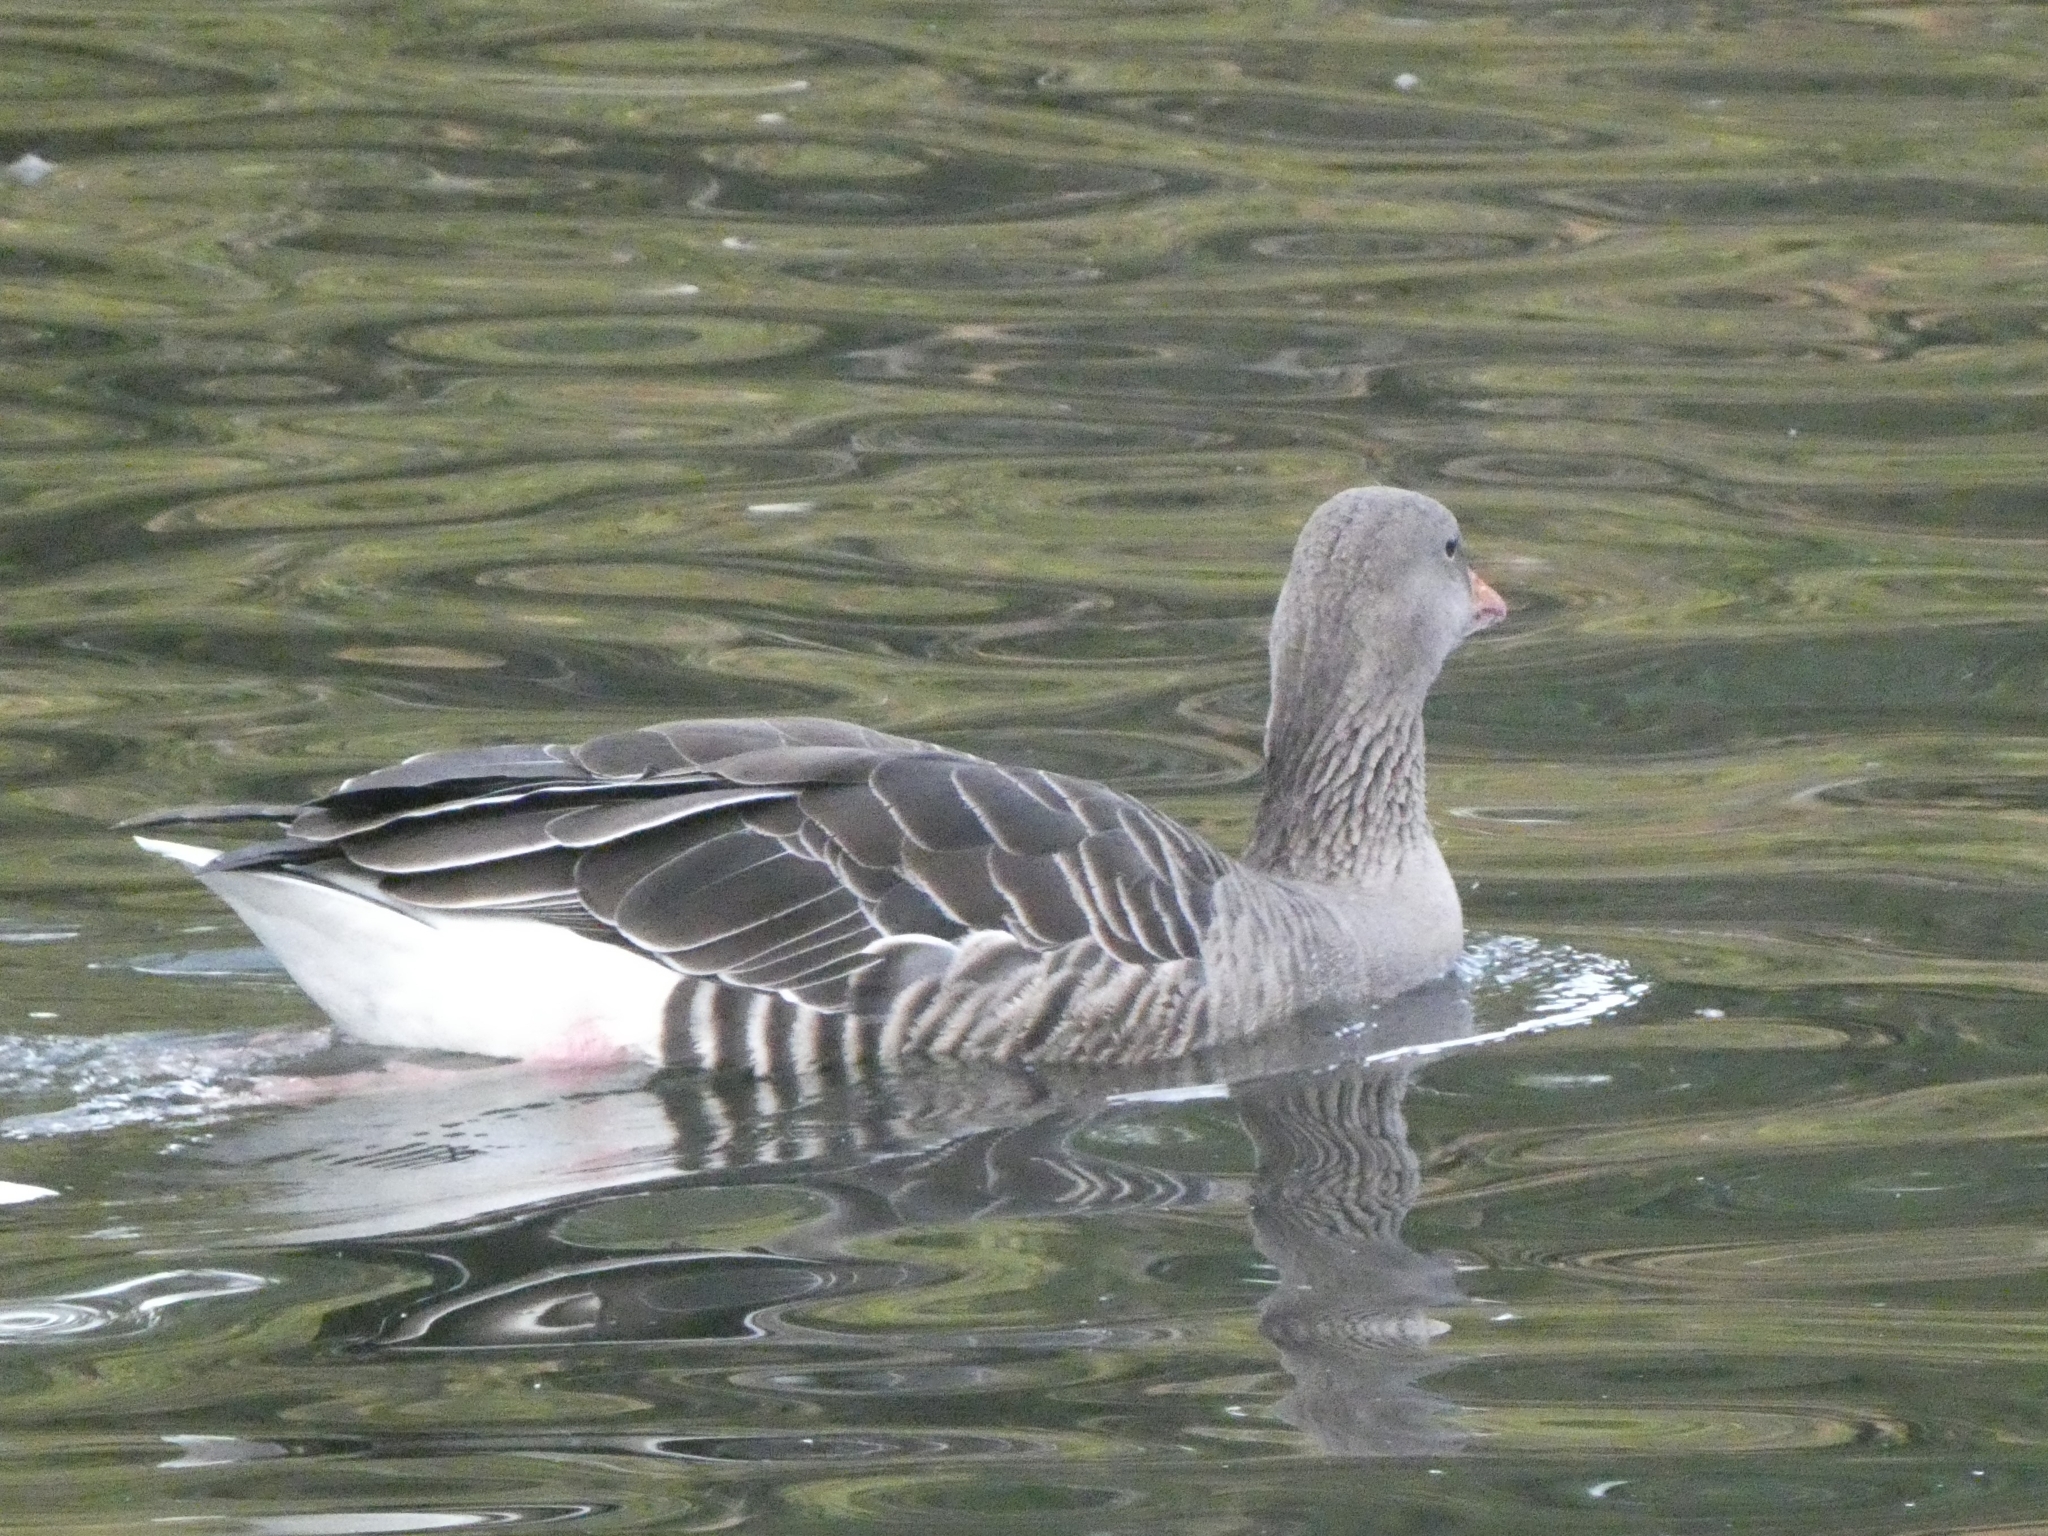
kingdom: Animalia
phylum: Chordata
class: Aves
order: Anseriformes
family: Anatidae
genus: Anser
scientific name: Anser anser
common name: Greylag goose
